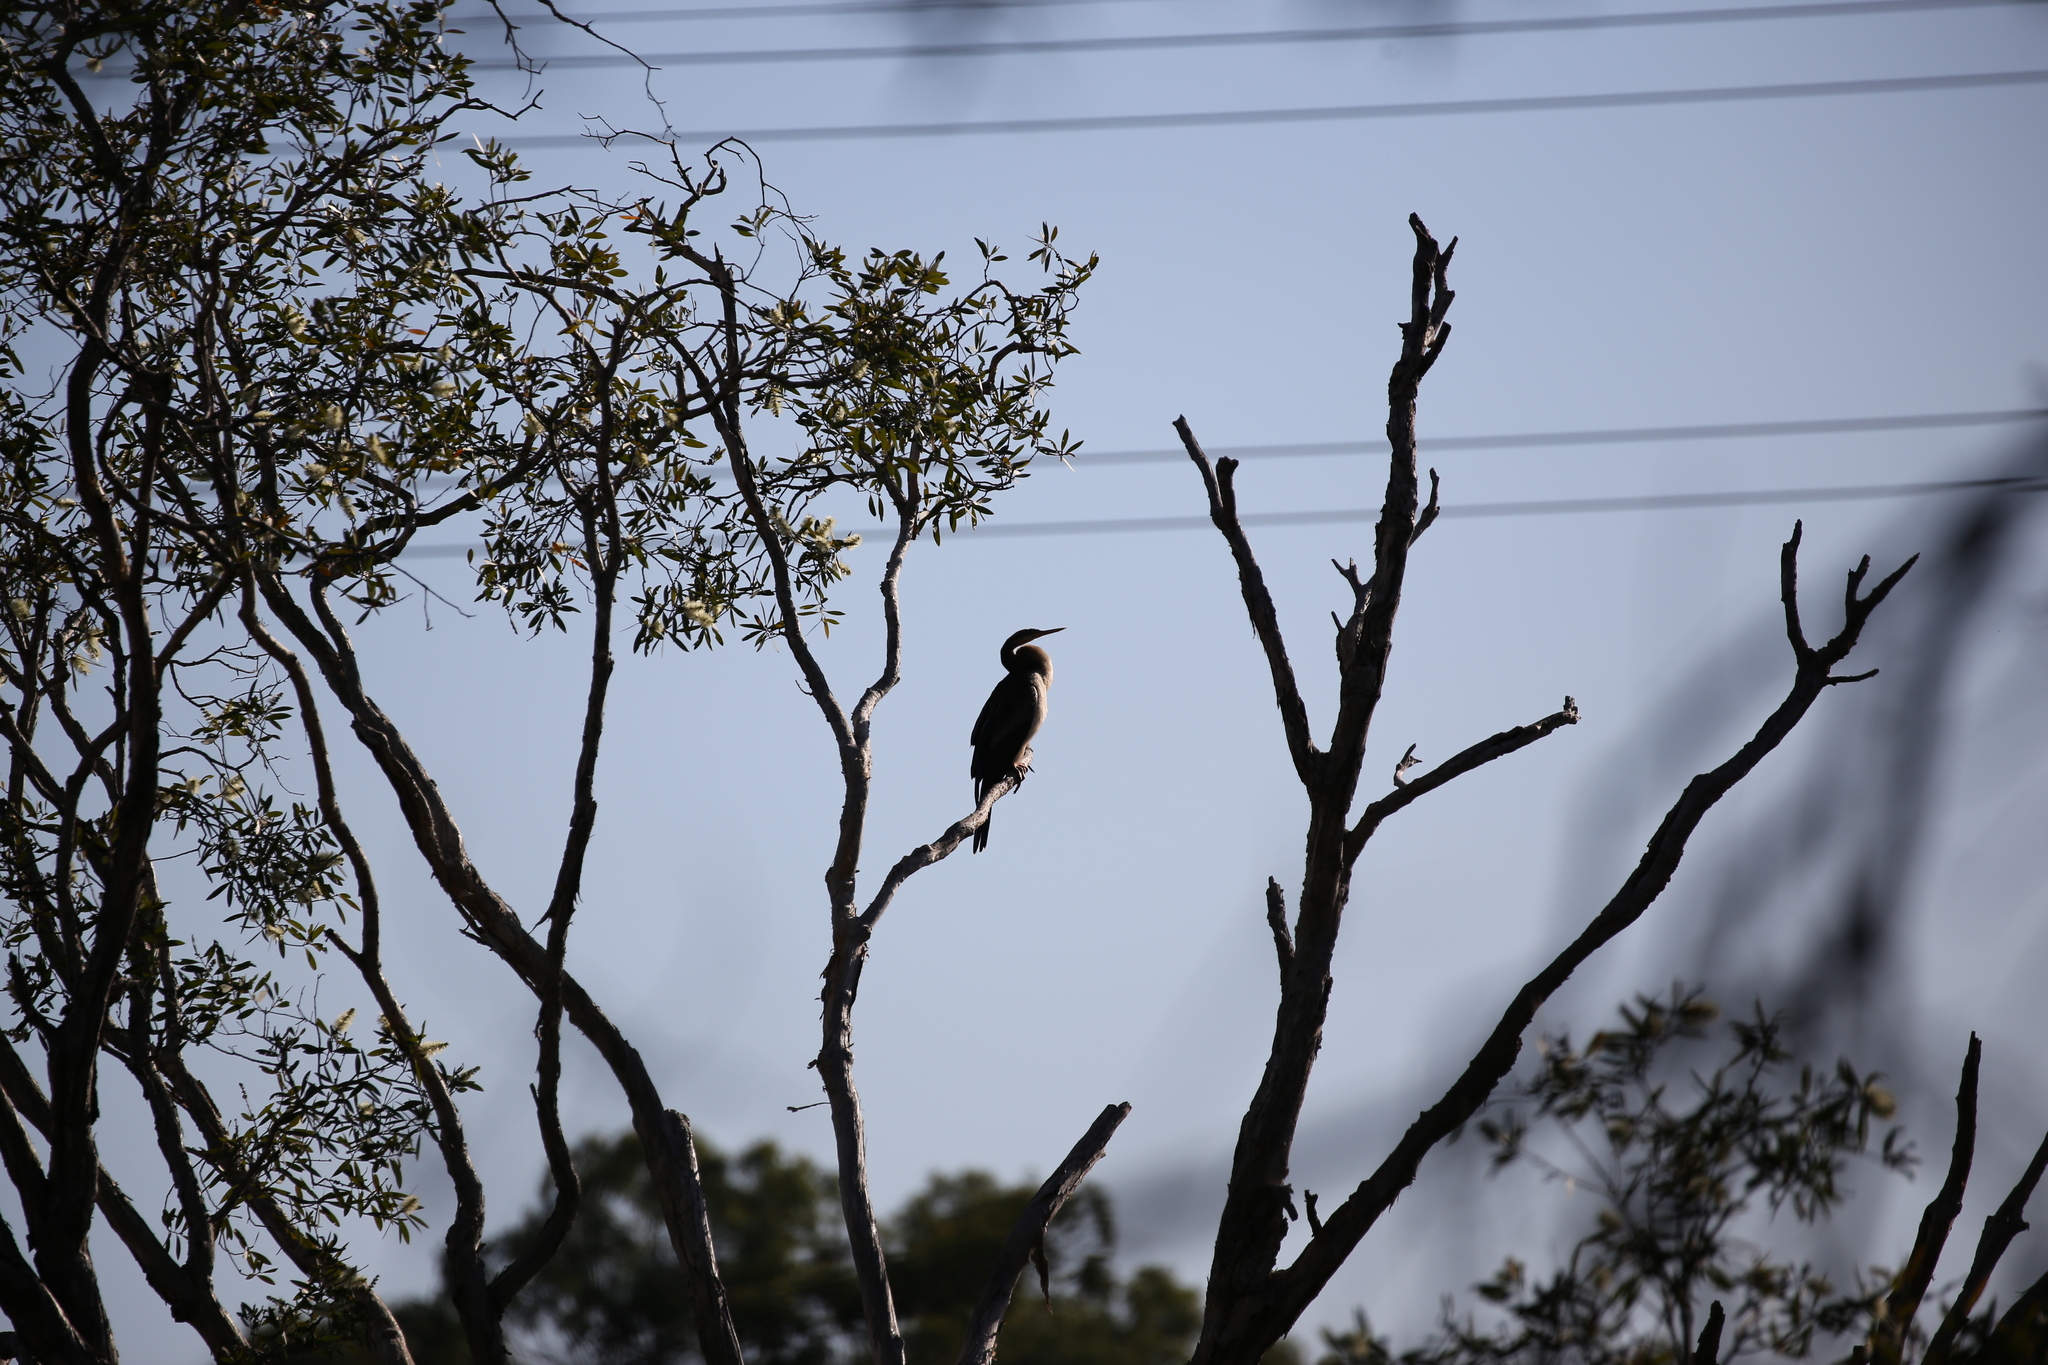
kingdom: Animalia
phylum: Chordata
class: Aves
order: Suliformes
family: Anhingidae
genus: Anhinga
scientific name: Anhinga novaehollandiae
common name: Australasian darter
